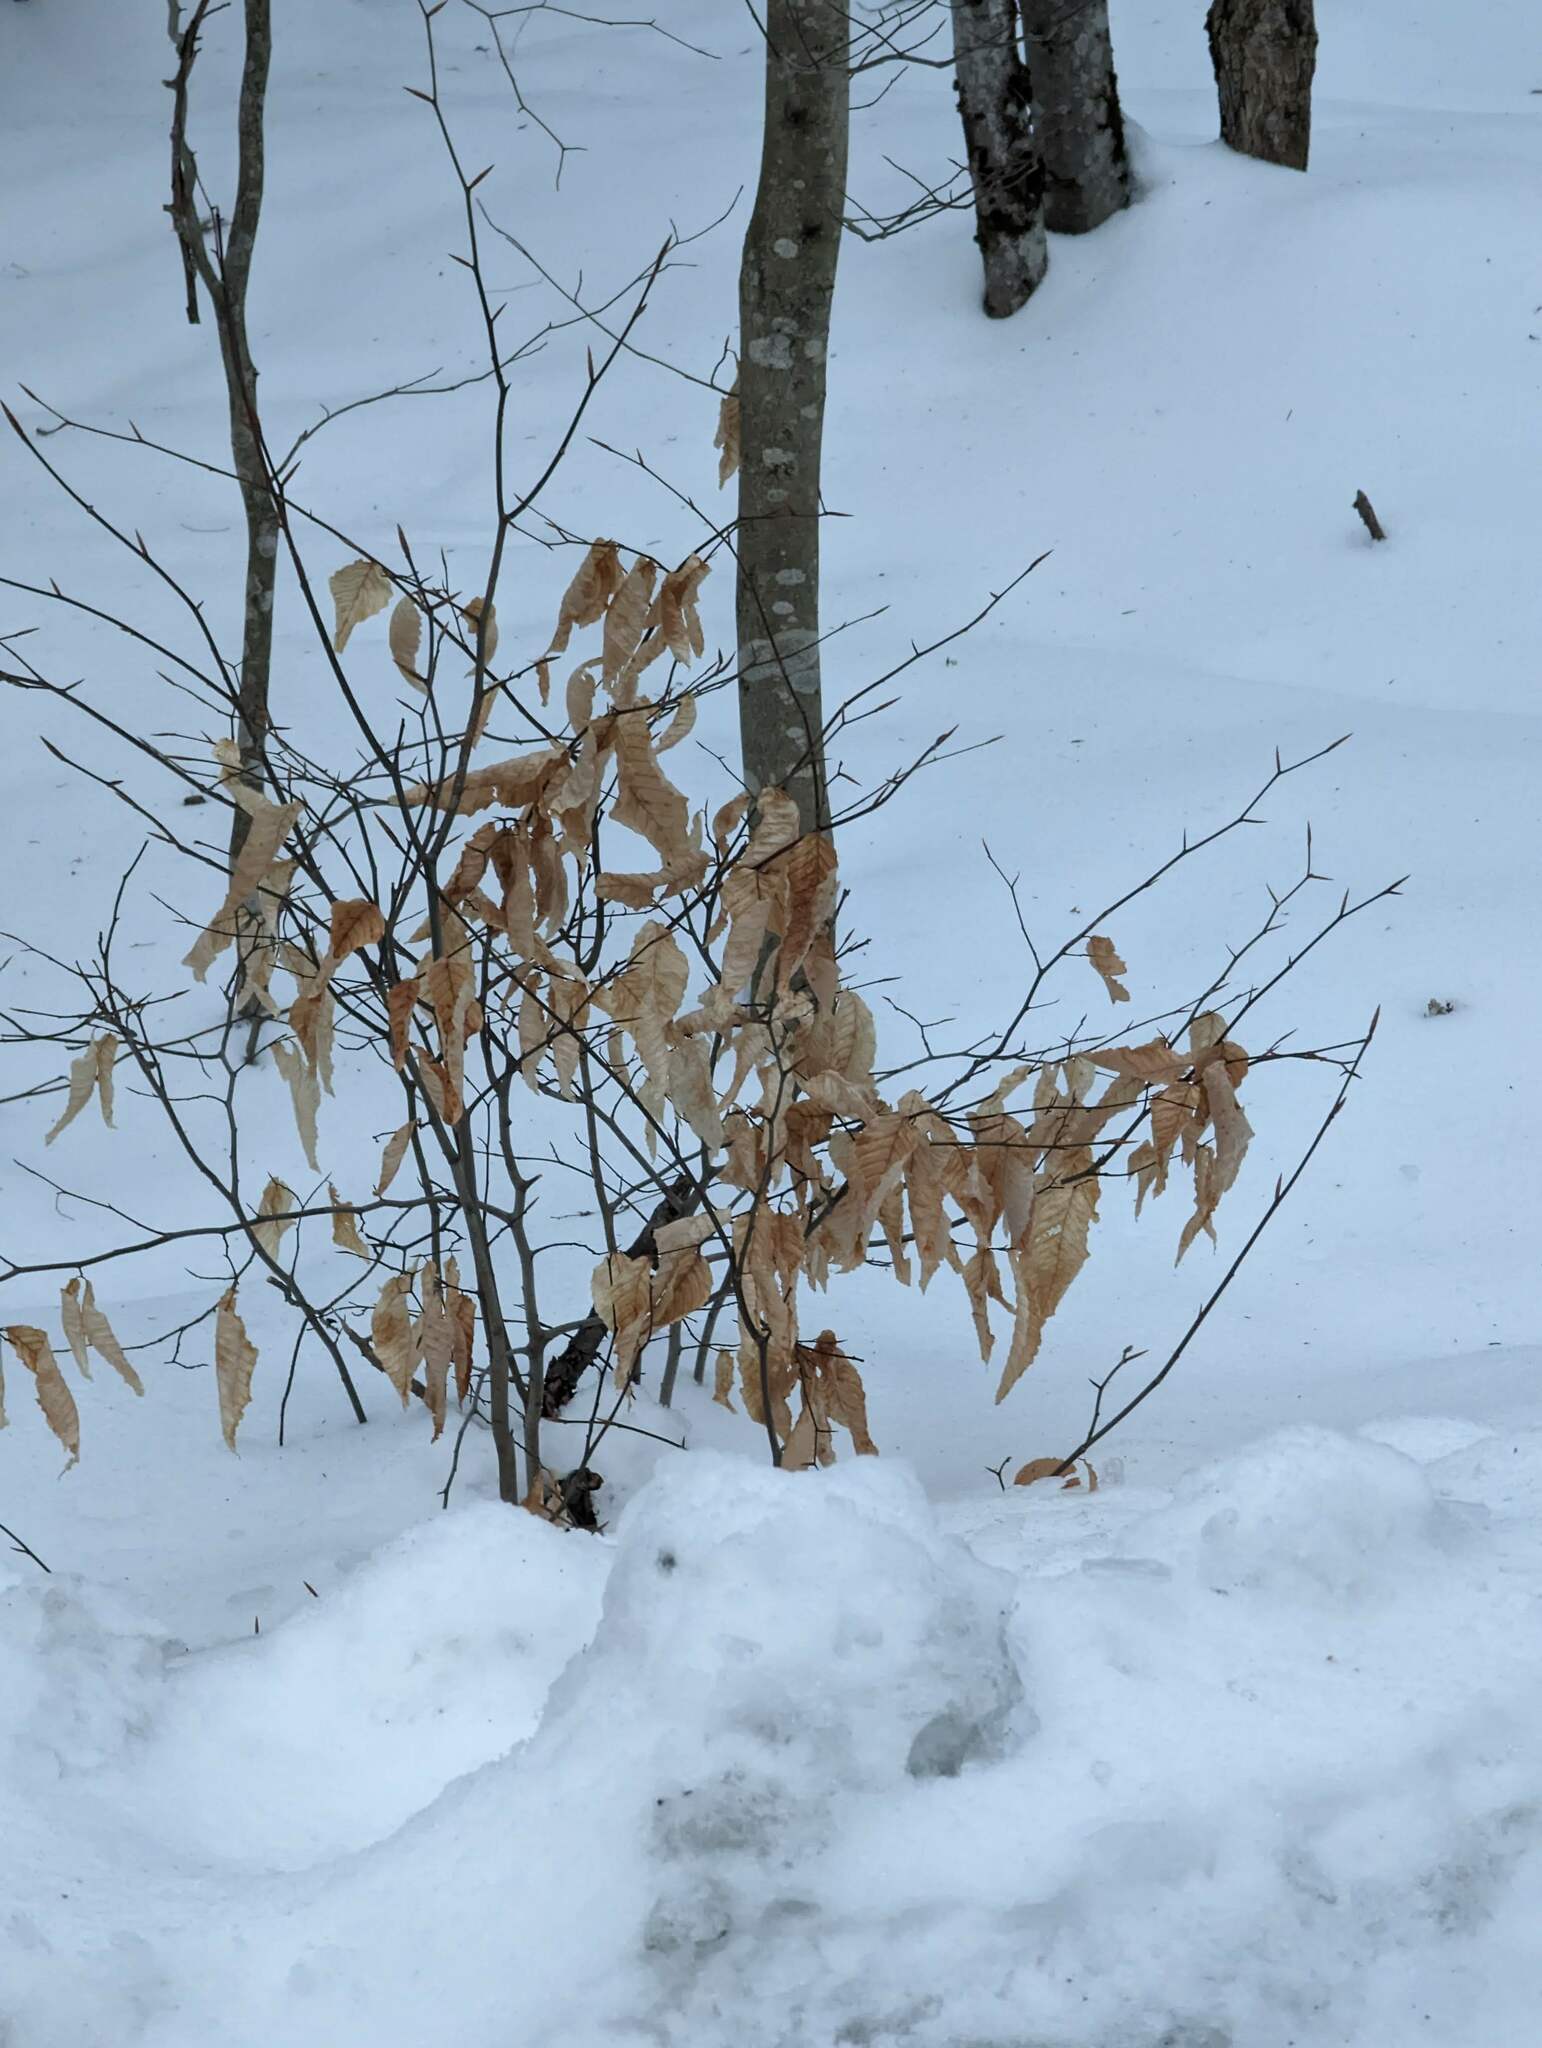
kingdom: Plantae
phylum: Tracheophyta
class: Magnoliopsida
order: Fagales
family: Fagaceae
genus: Fagus
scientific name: Fagus grandifolia
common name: American beech
